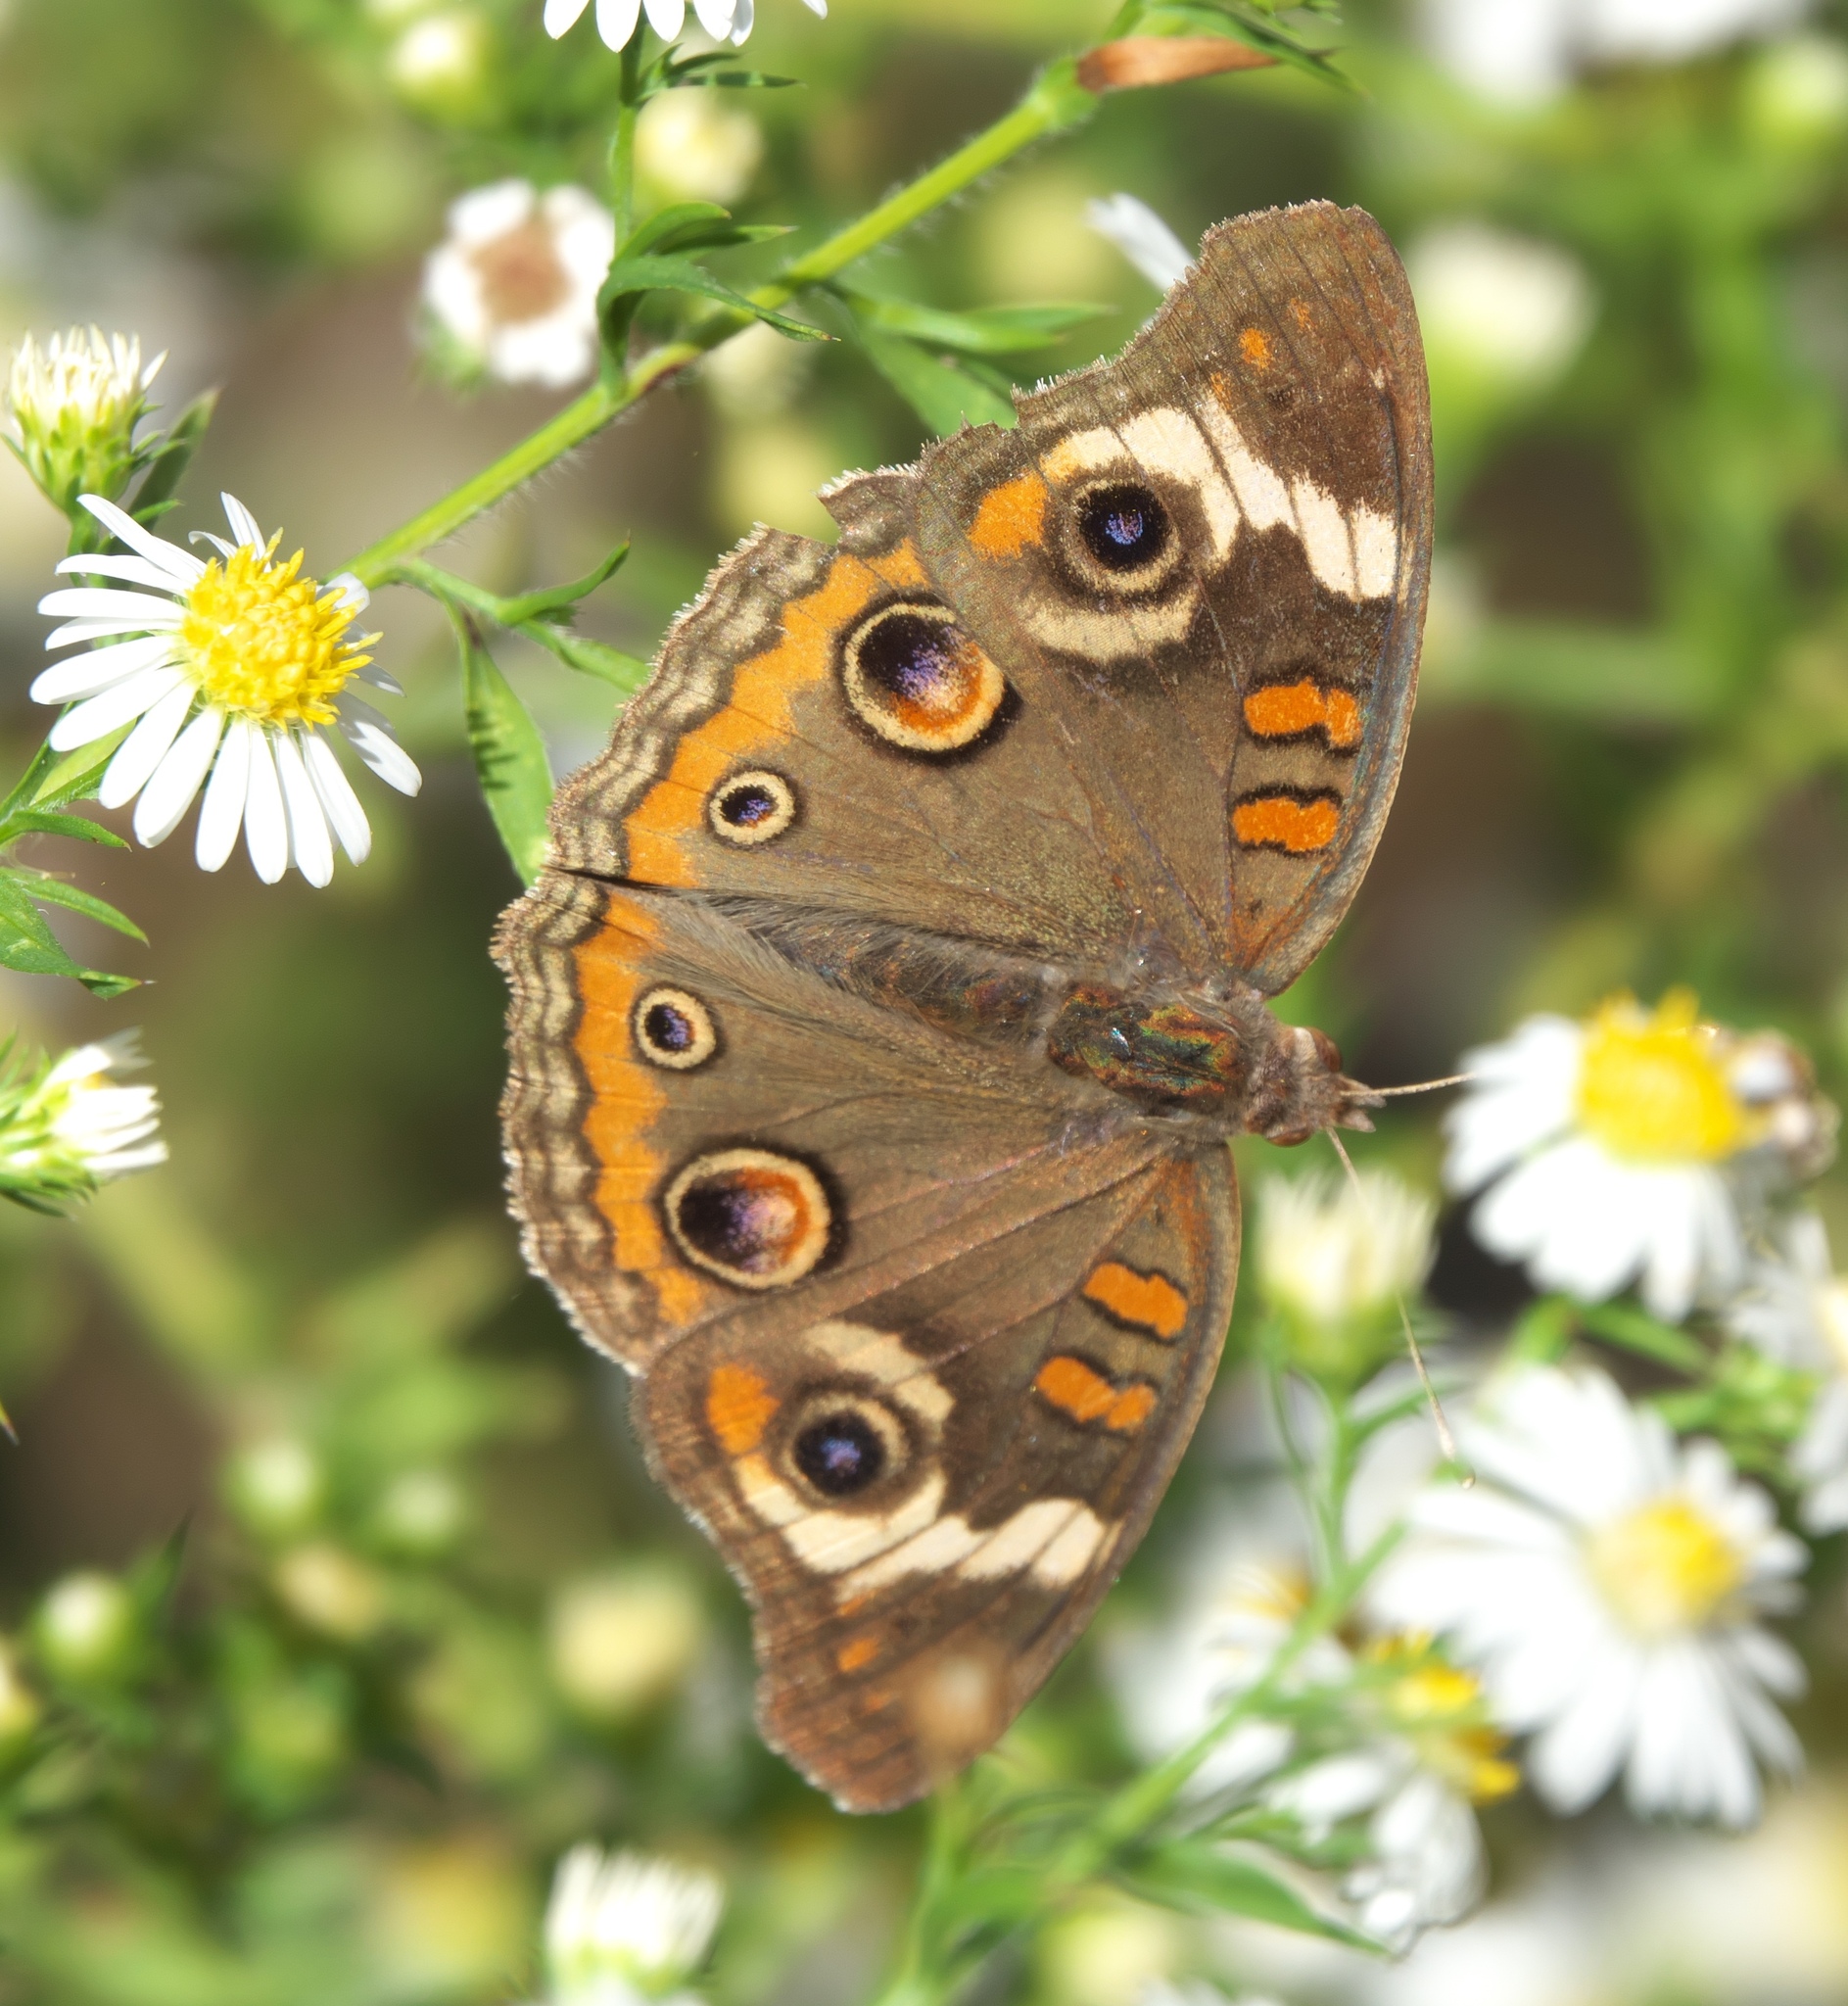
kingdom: Animalia
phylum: Arthropoda
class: Insecta
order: Lepidoptera
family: Nymphalidae
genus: Junonia
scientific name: Junonia coenia
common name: Common buckeye
